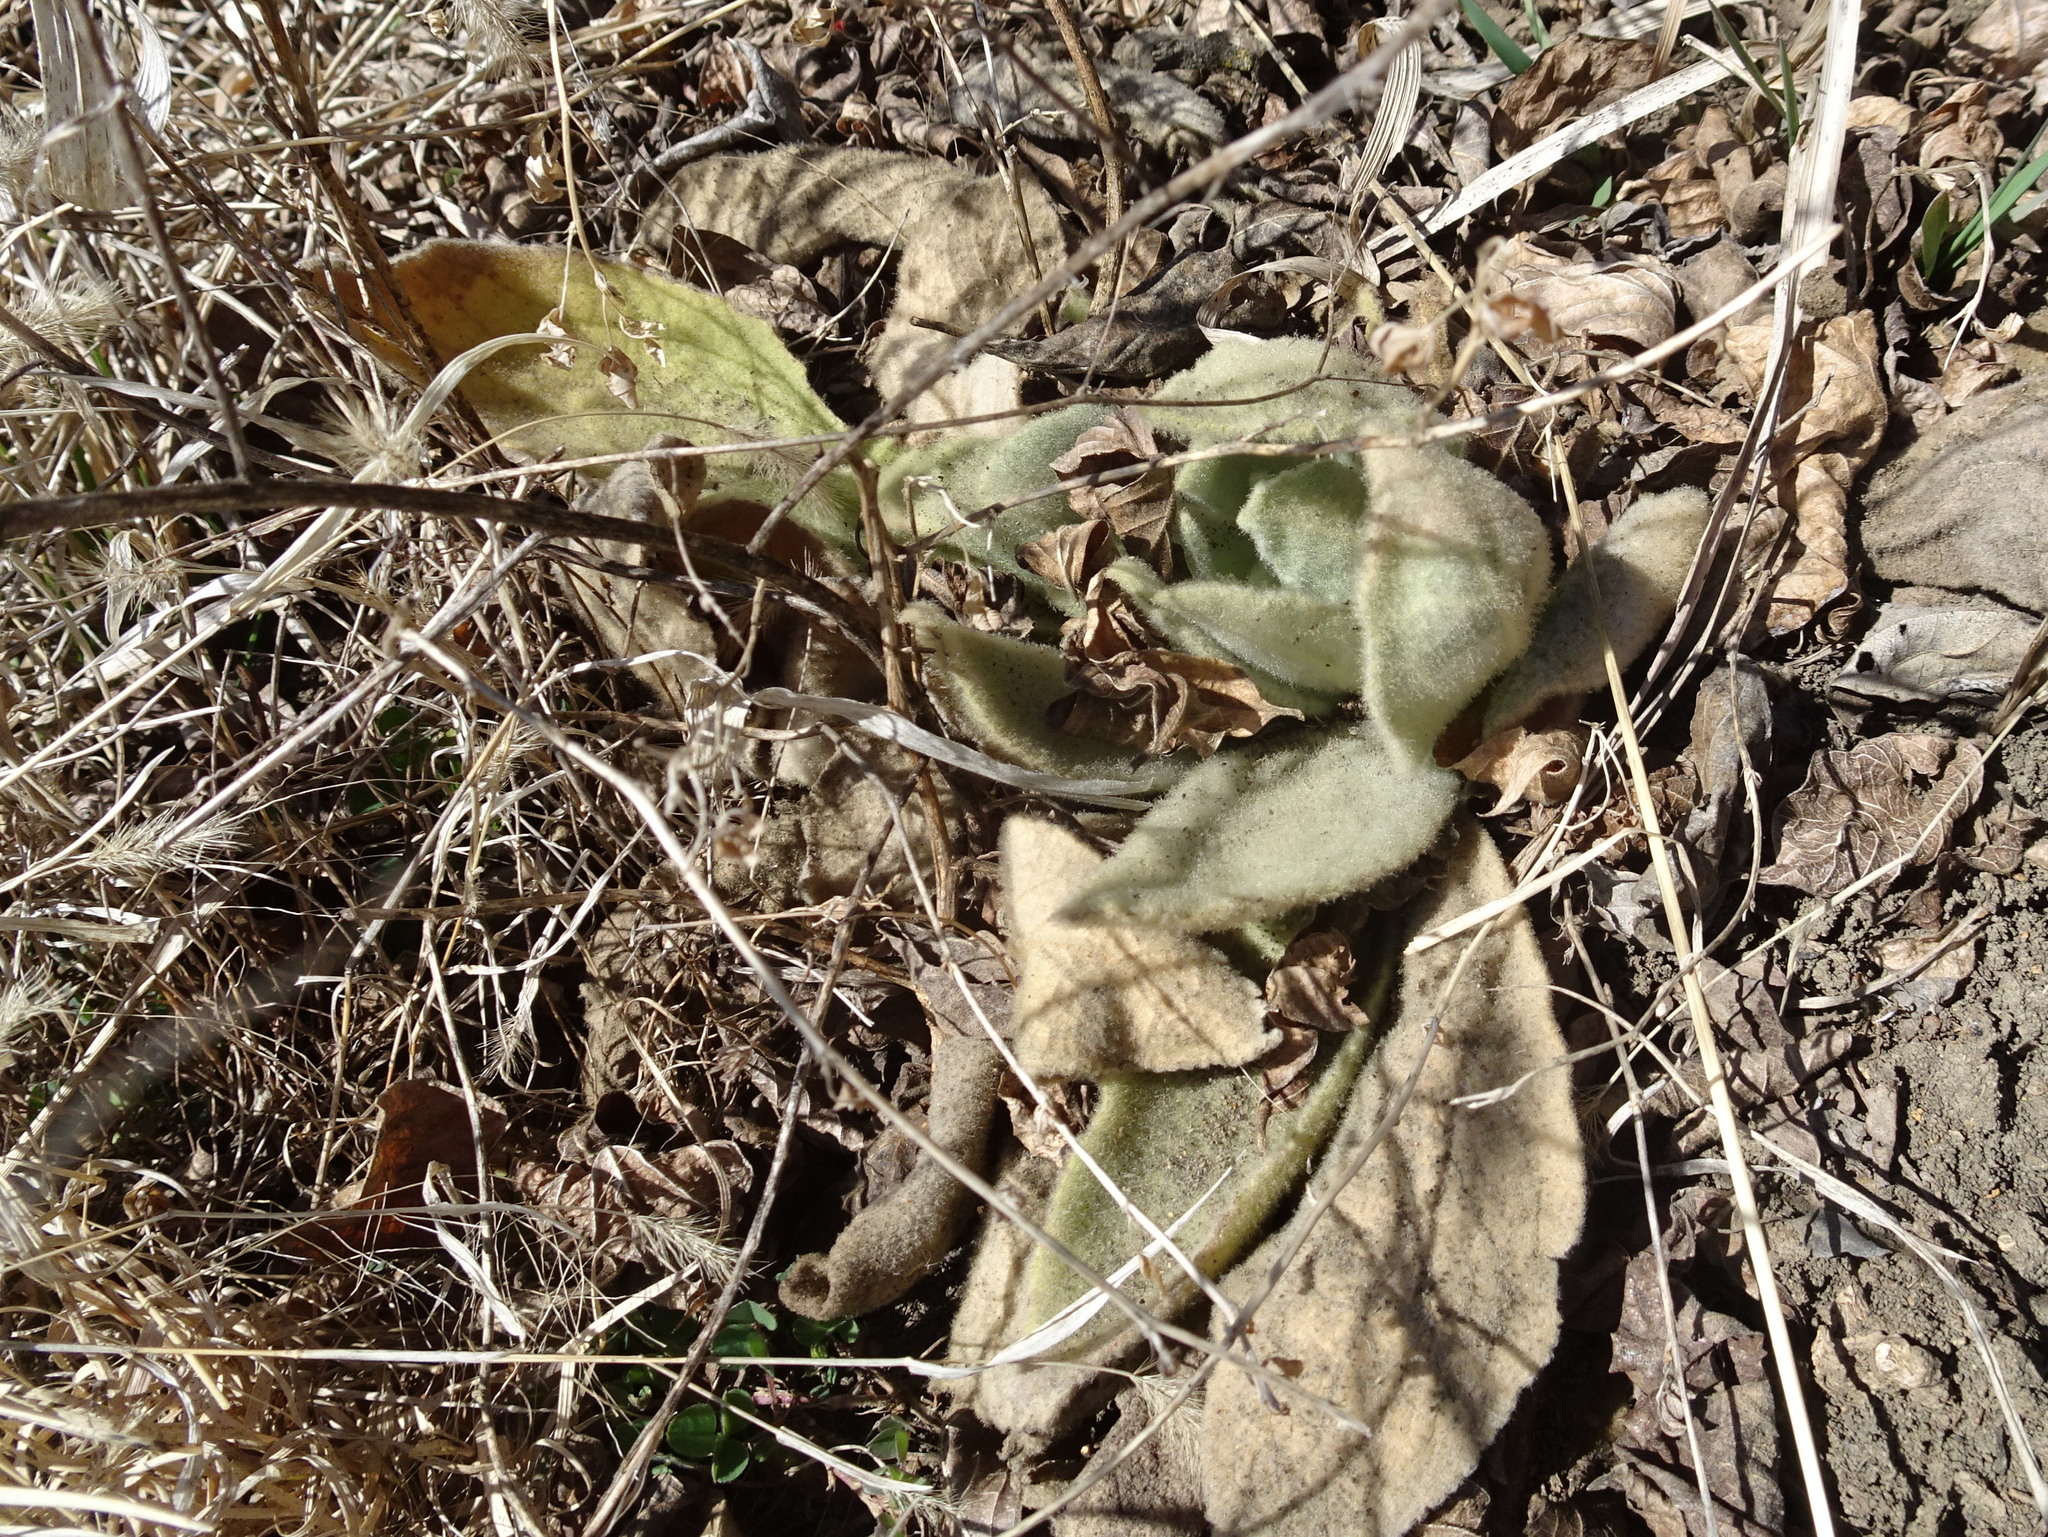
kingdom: Plantae
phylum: Tracheophyta
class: Magnoliopsida
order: Lamiales
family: Scrophulariaceae
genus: Verbascum
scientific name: Verbascum thapsus
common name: Common mullein
